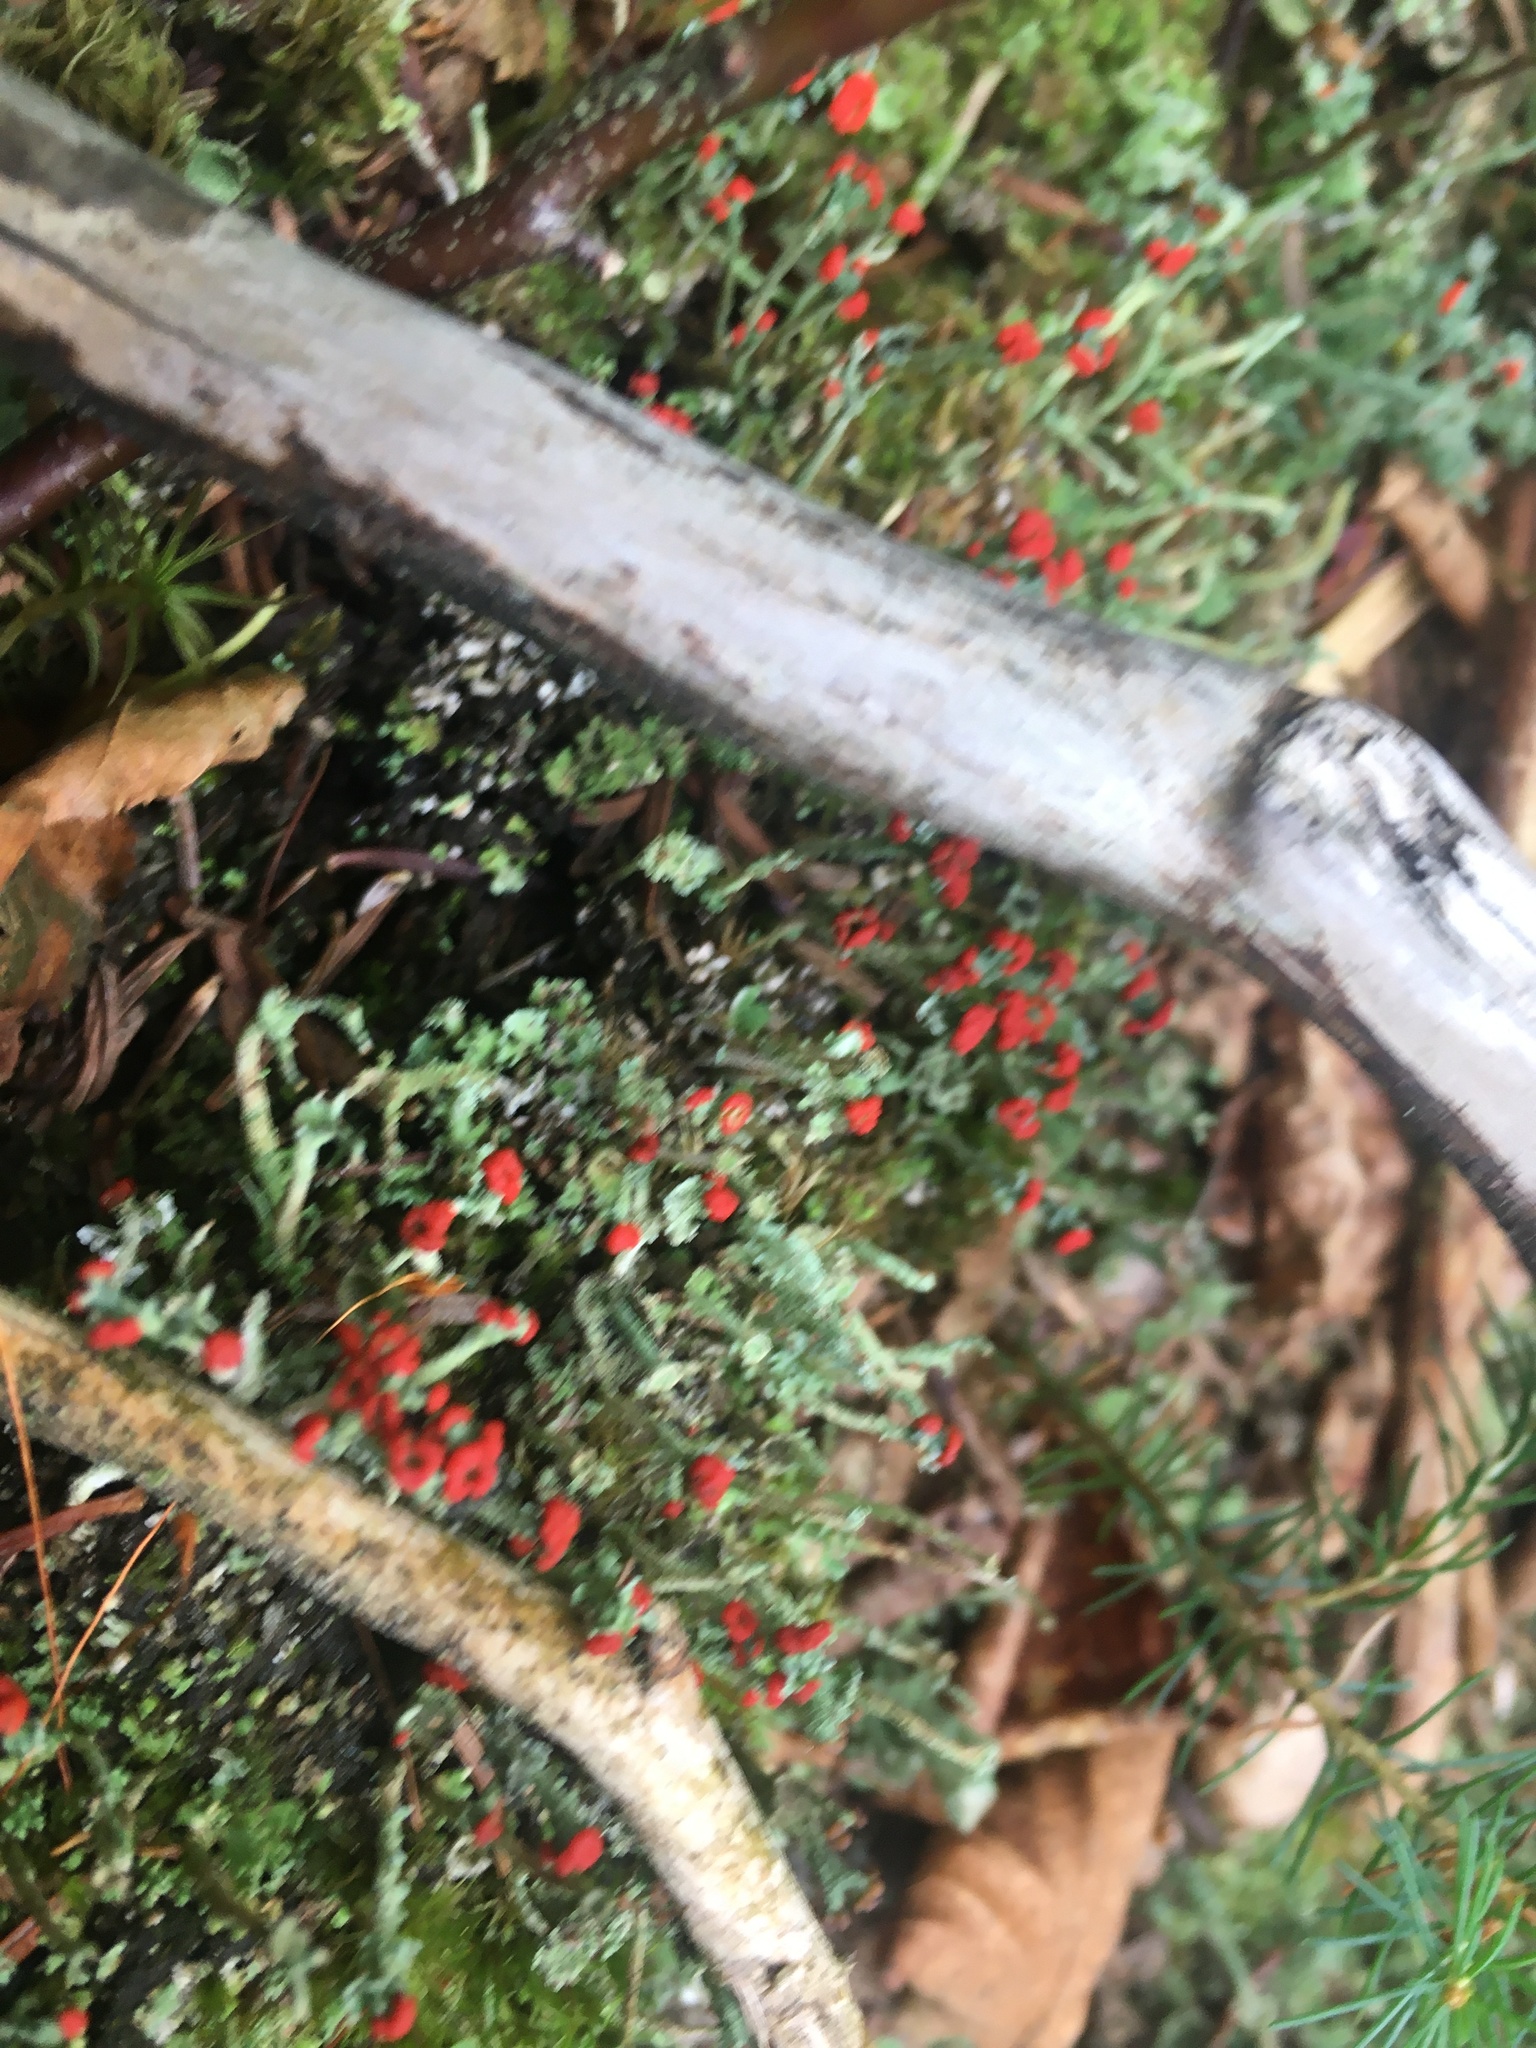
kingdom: Fungi
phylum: Ascomycota
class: Lecanoromycetes
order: Lecanorales
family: Cladoniaceae
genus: Cladonia
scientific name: Cladonia cristatella
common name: British soldier lichen
